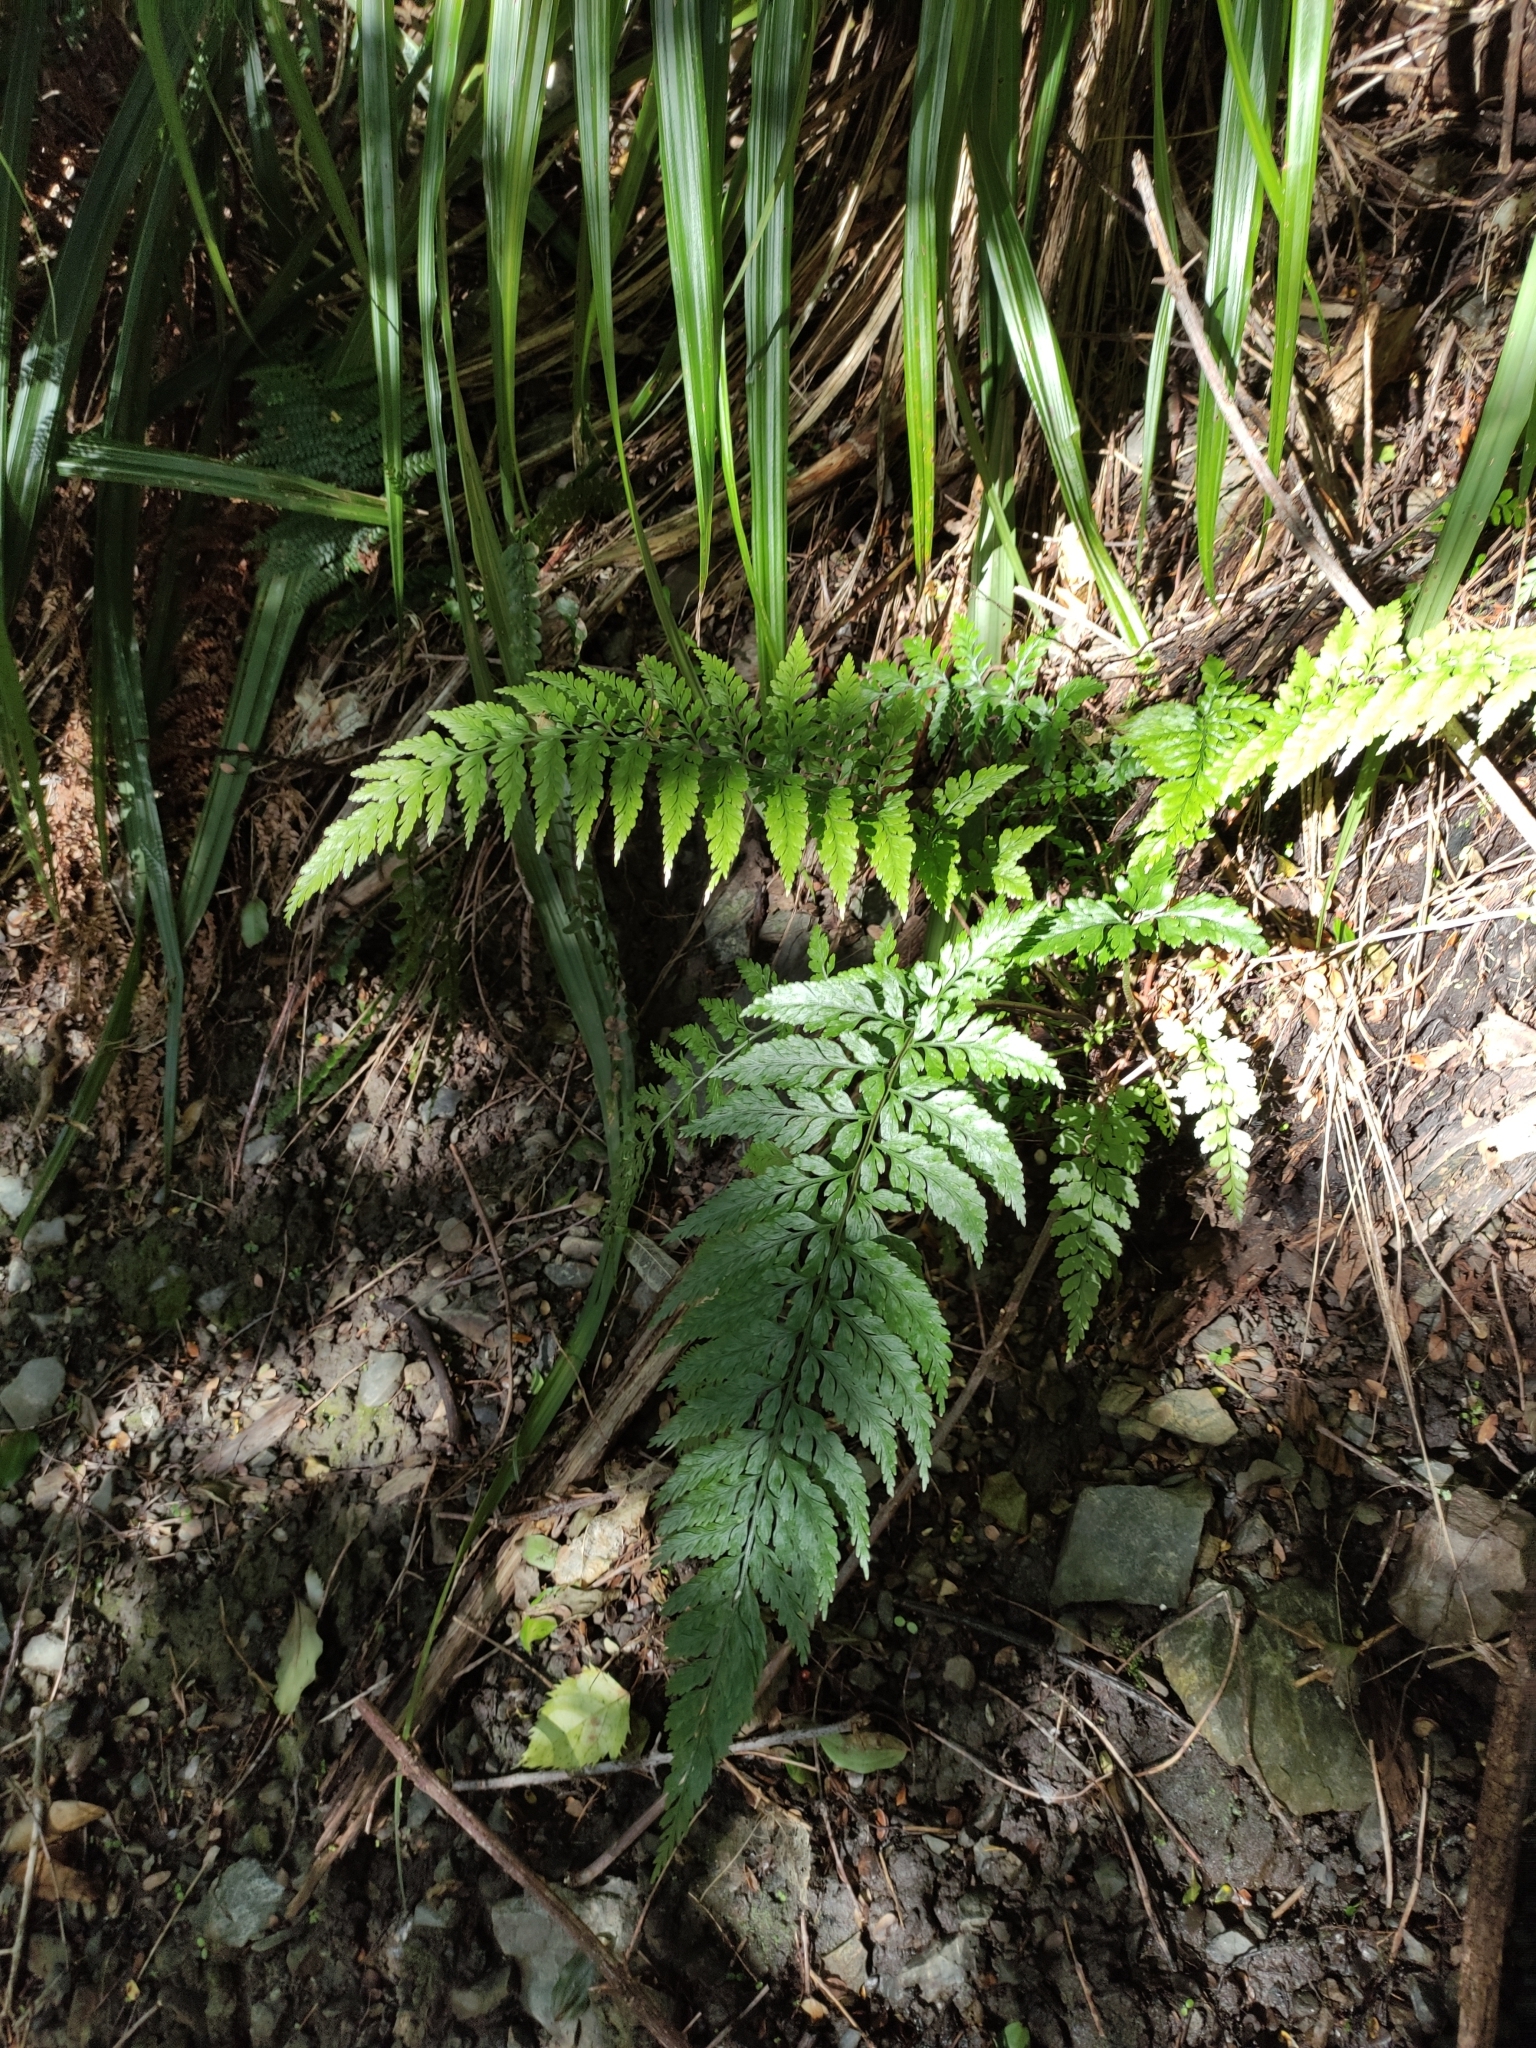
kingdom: Plantae
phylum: Tracheophyta
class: Polypodiopsida
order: Polypodiales
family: Aspleniaceae
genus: Asplenium
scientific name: Asplenium
